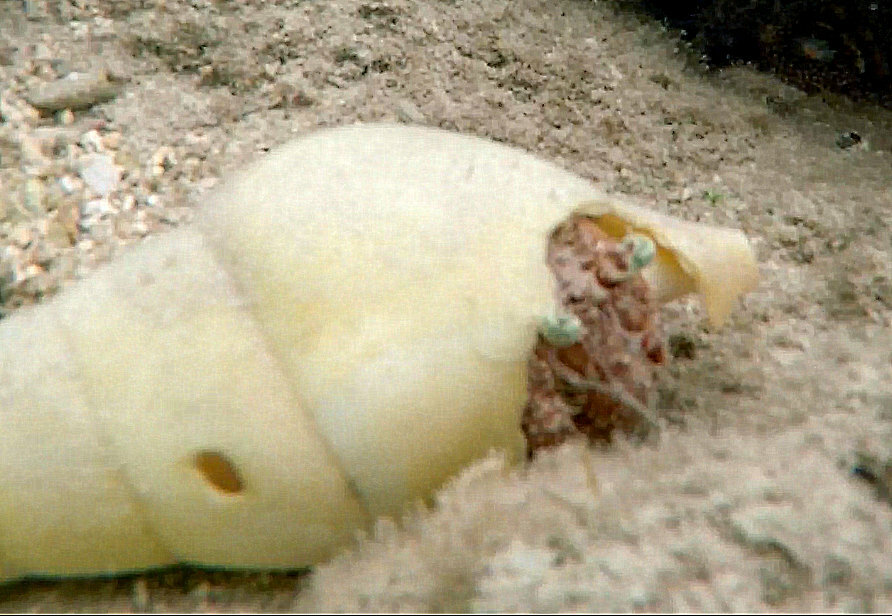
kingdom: Animalia
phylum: Arthropoda
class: Malacostraca
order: Decapoda
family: Diogenidae
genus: Dardanus
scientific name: Dardanus tinctor
